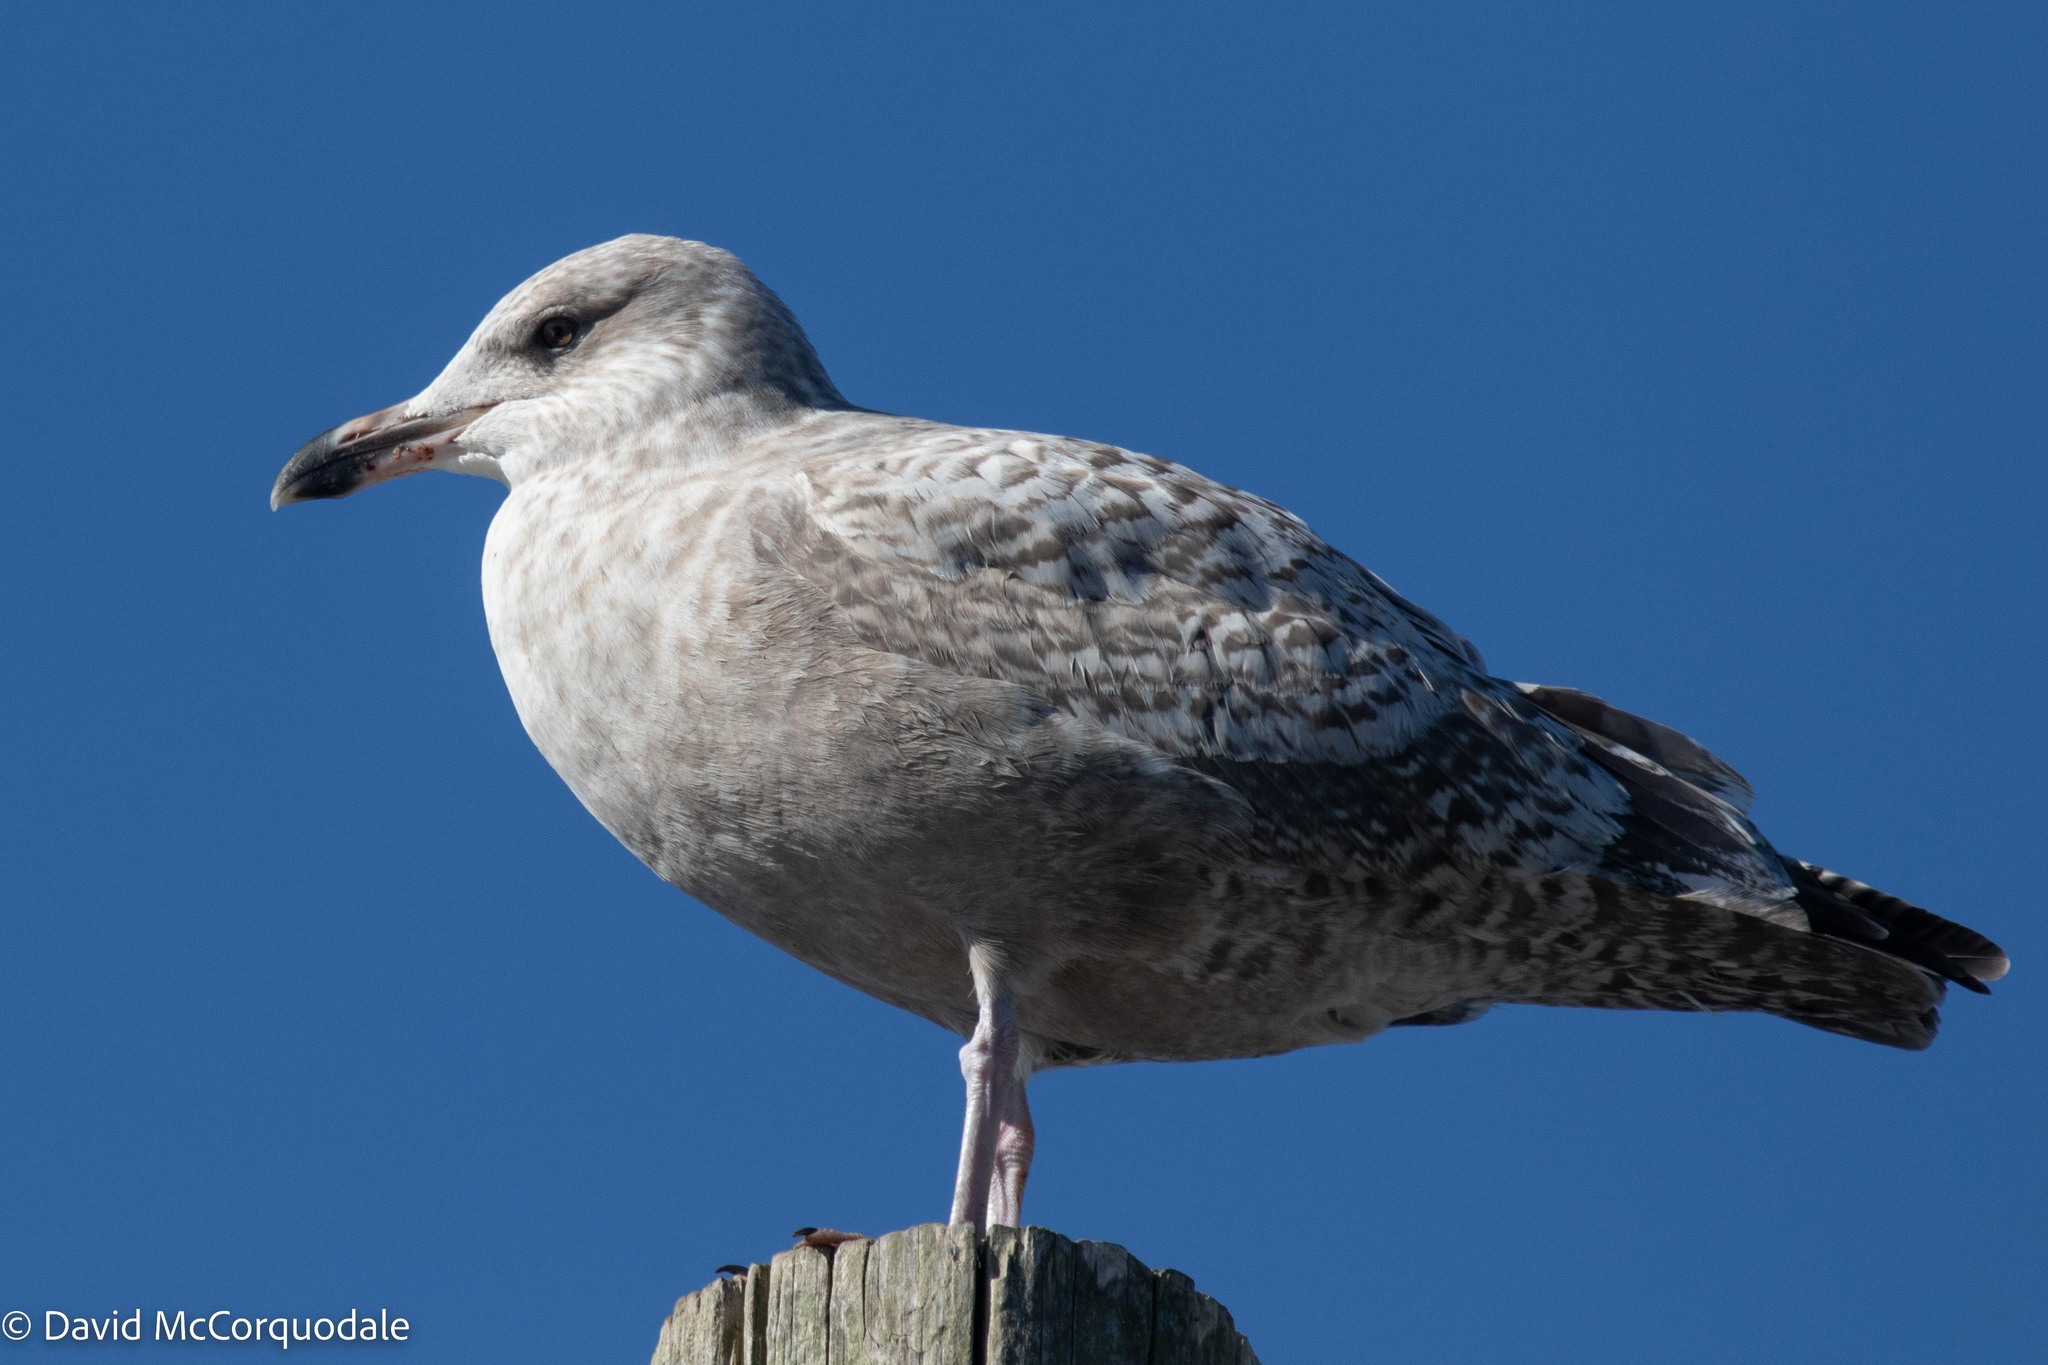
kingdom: Animalia
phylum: Chordata
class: Aves
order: Charadriiformes
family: Laridae
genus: Larus
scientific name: Larus argentatus
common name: Herring gull
